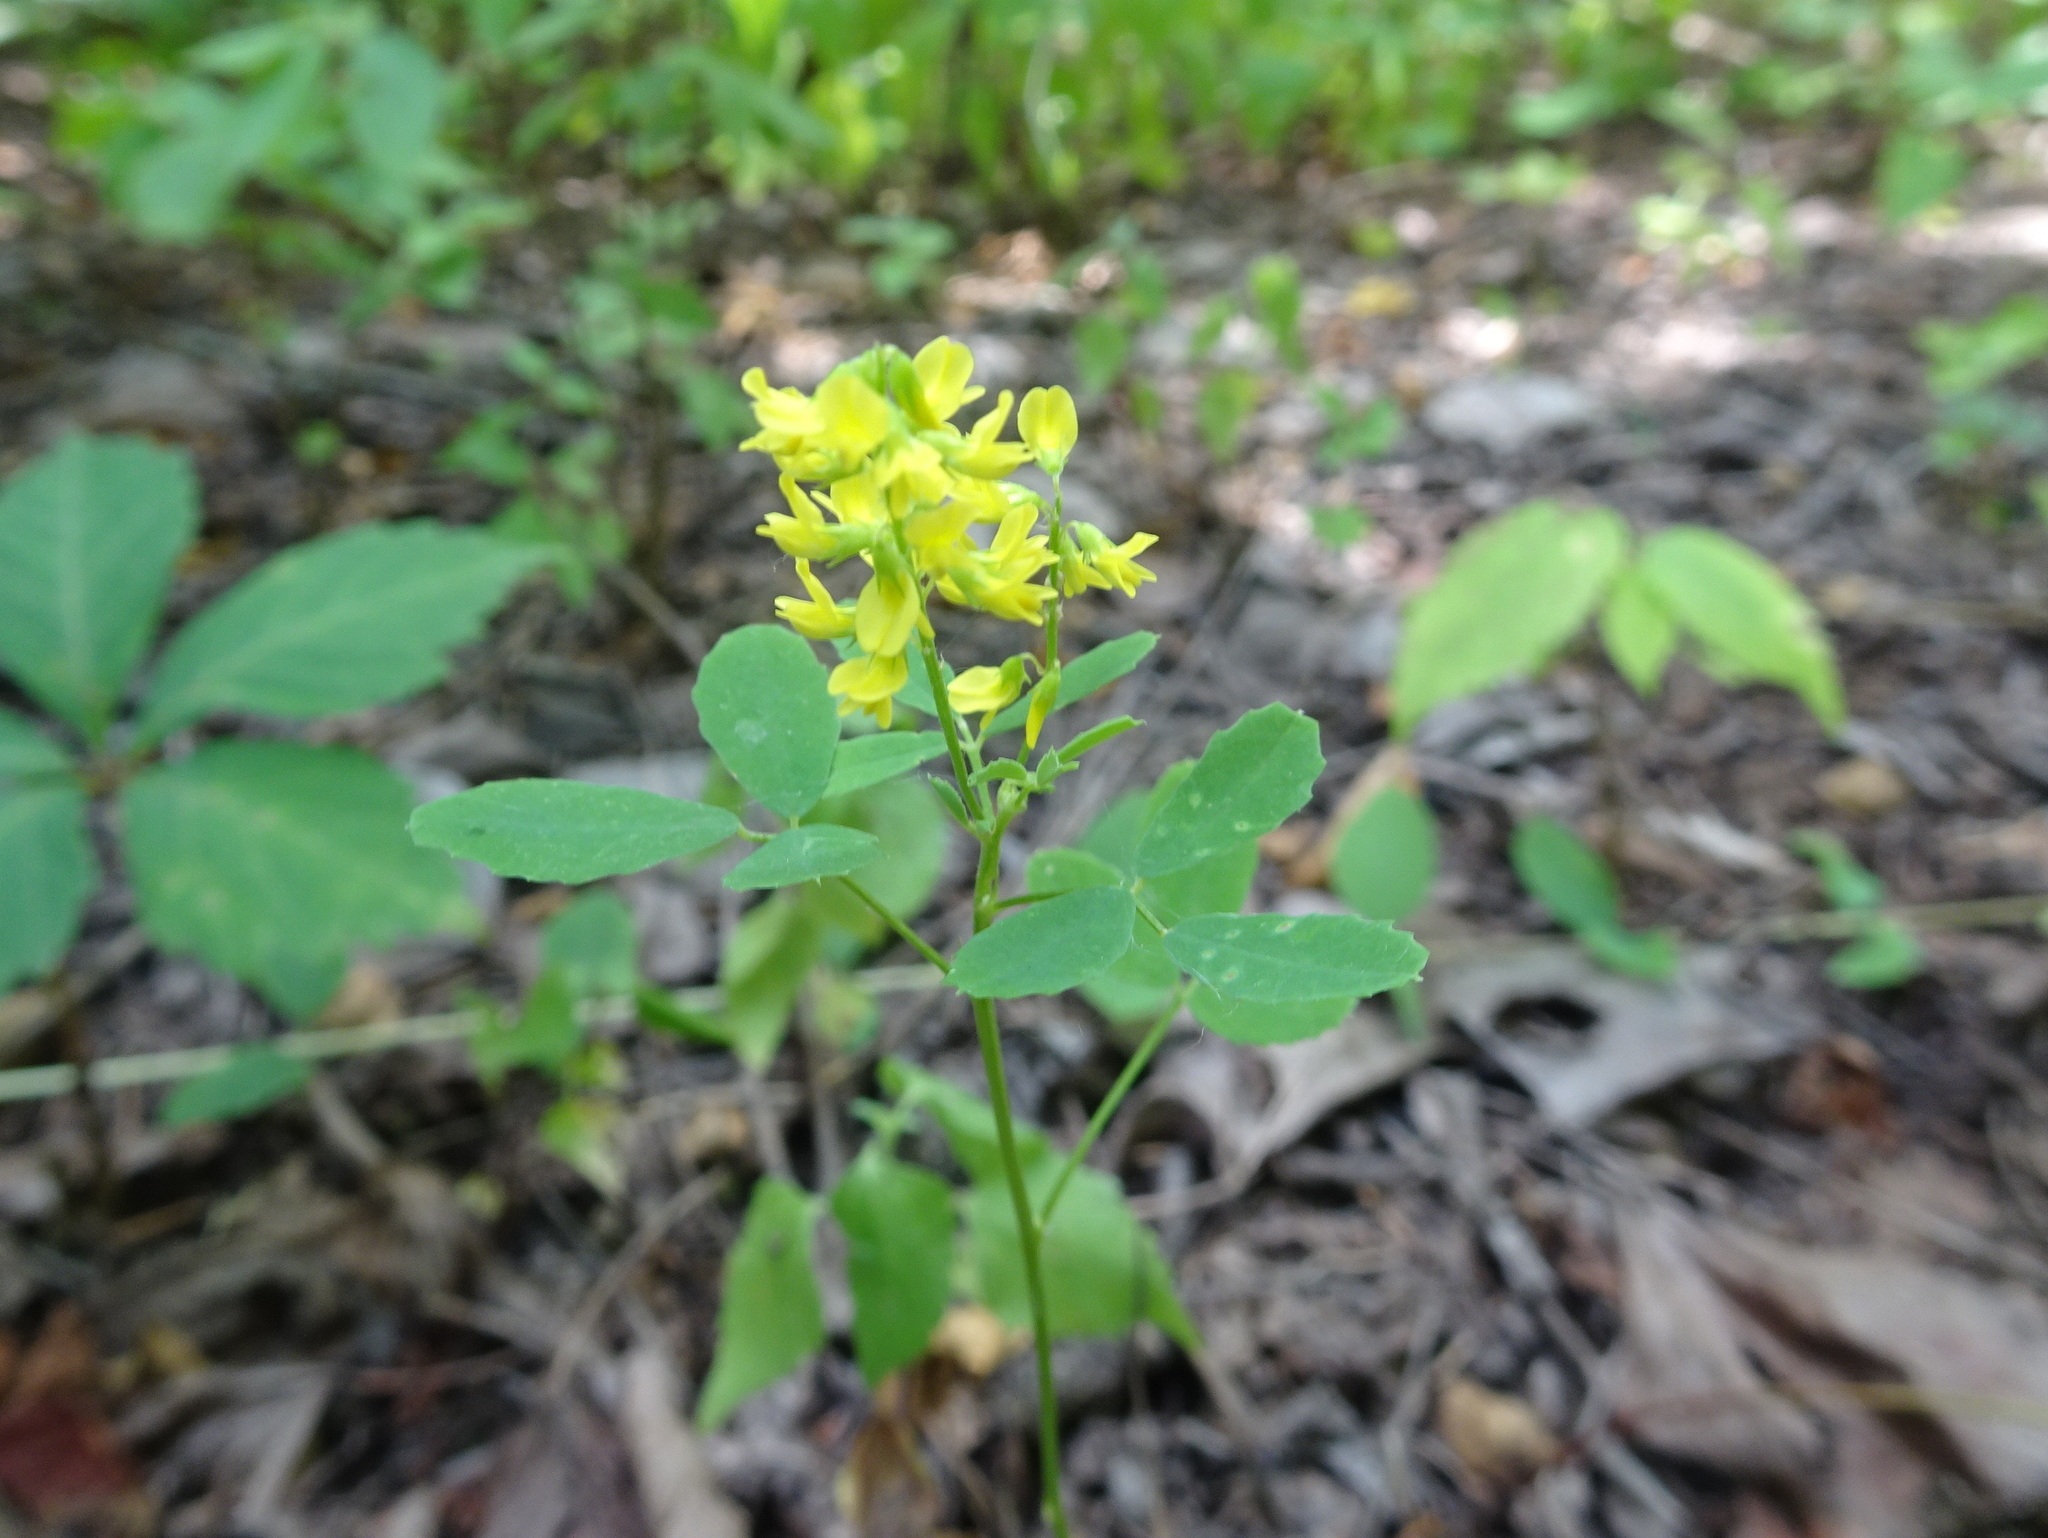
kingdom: Plantae
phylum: Tracheophyta
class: Magnoliopsida
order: Fabales
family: Fabaceae
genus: Melilotus
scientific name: Melilotus officinalis
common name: Sweetclover
